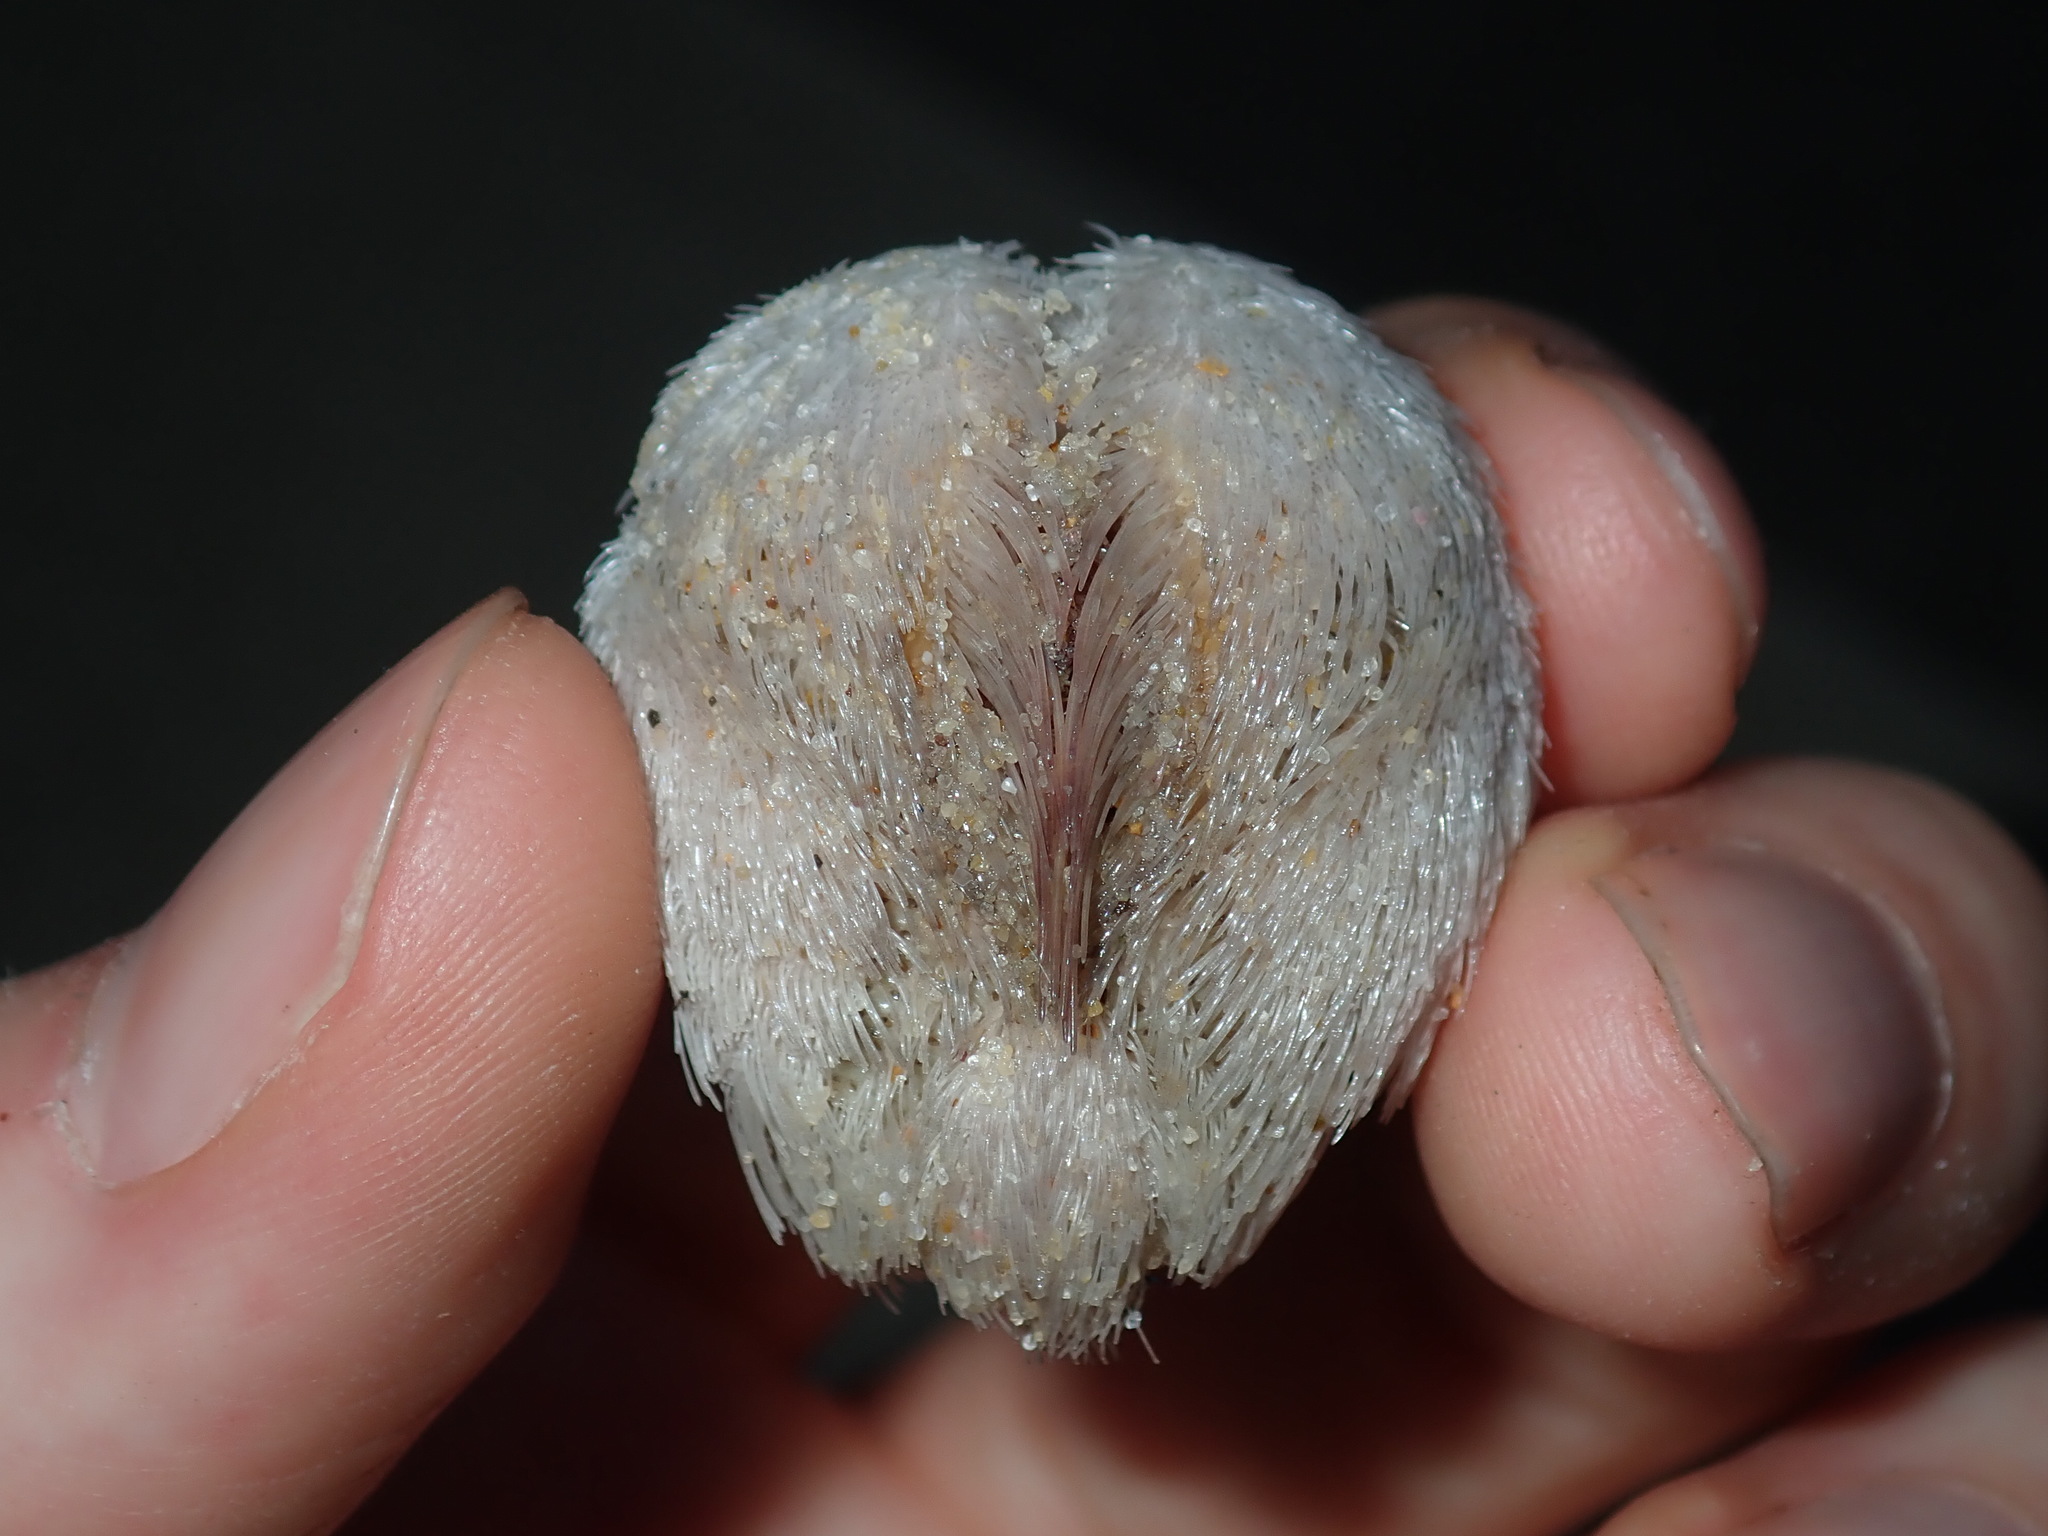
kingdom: Animalia
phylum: Echinodermata
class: Echinoidea
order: Spatangoida
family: Loveniidae
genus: Echinocardium
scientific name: Echinocardium cordatum
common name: Heart-urchin
